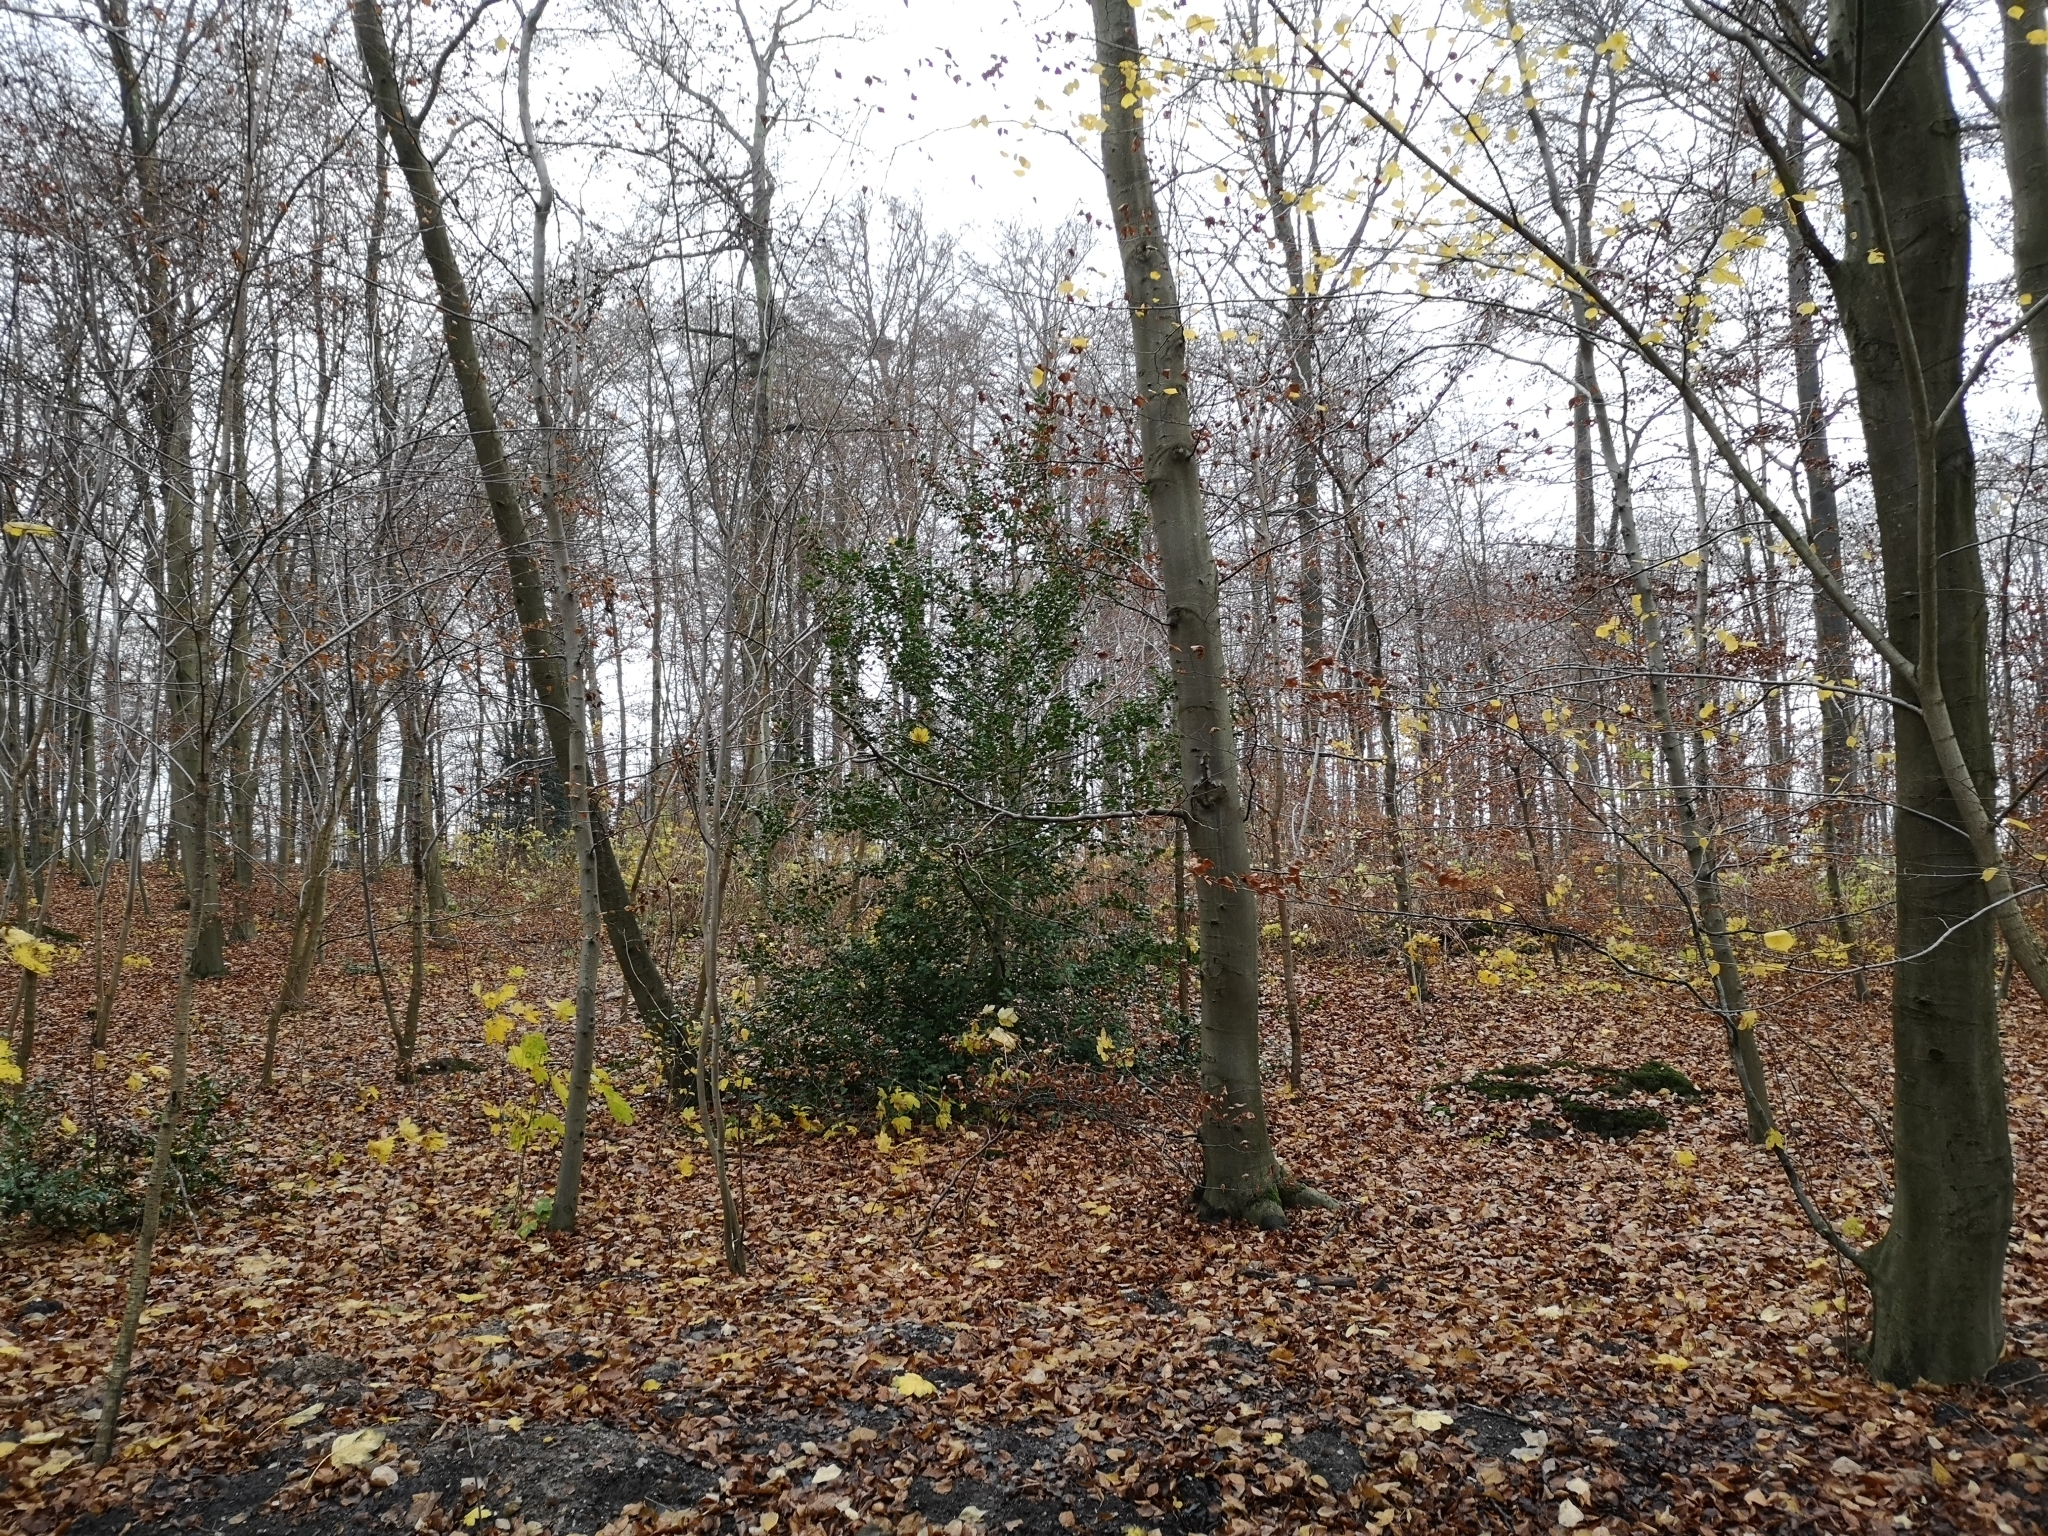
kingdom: Plantae
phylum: Tracheophyta
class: Magnoliopsida
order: Aquifoliales
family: Aquifoliaceae
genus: Ilex
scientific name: Ilex aquifolium
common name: English holly
